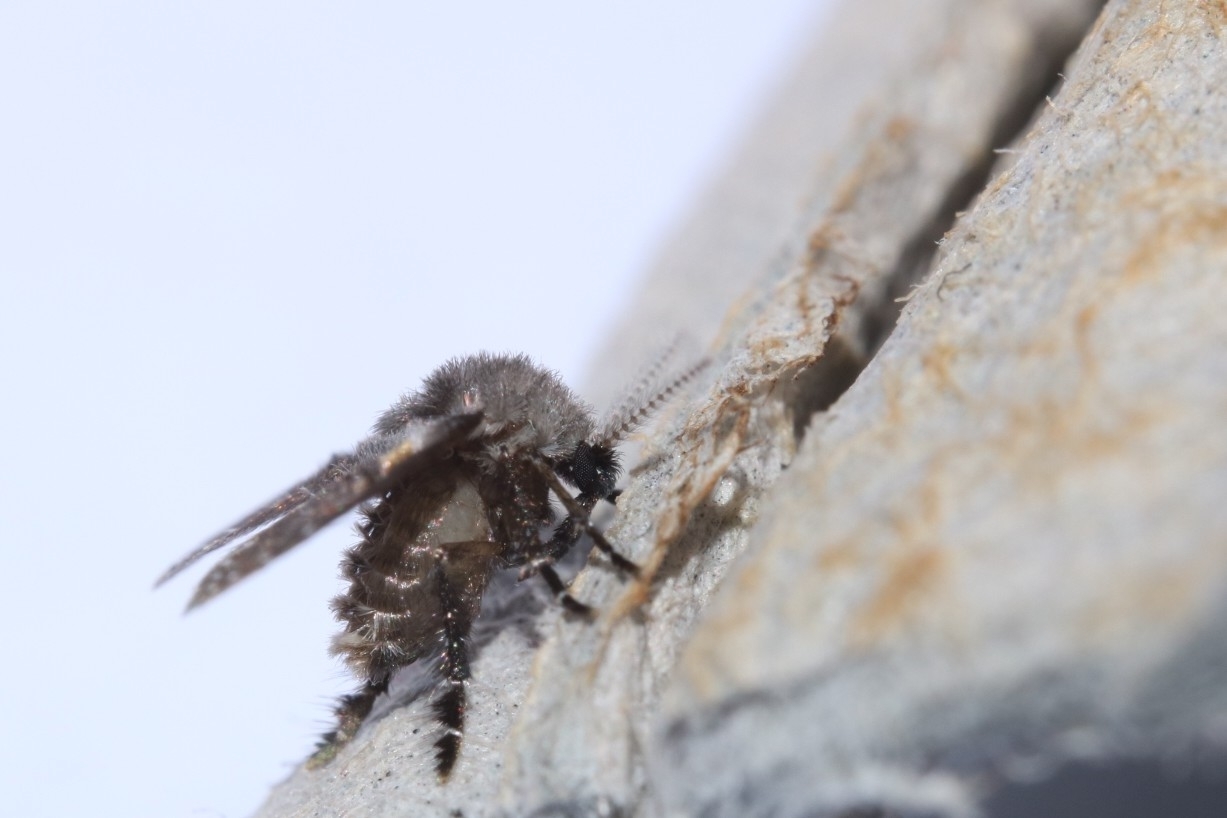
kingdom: Animalia
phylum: Arthropoda
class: Insecta
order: Diptera
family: Psychodidae
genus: Clogmia
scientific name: Clogmia albipunctatus
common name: White-spotted moth fly
